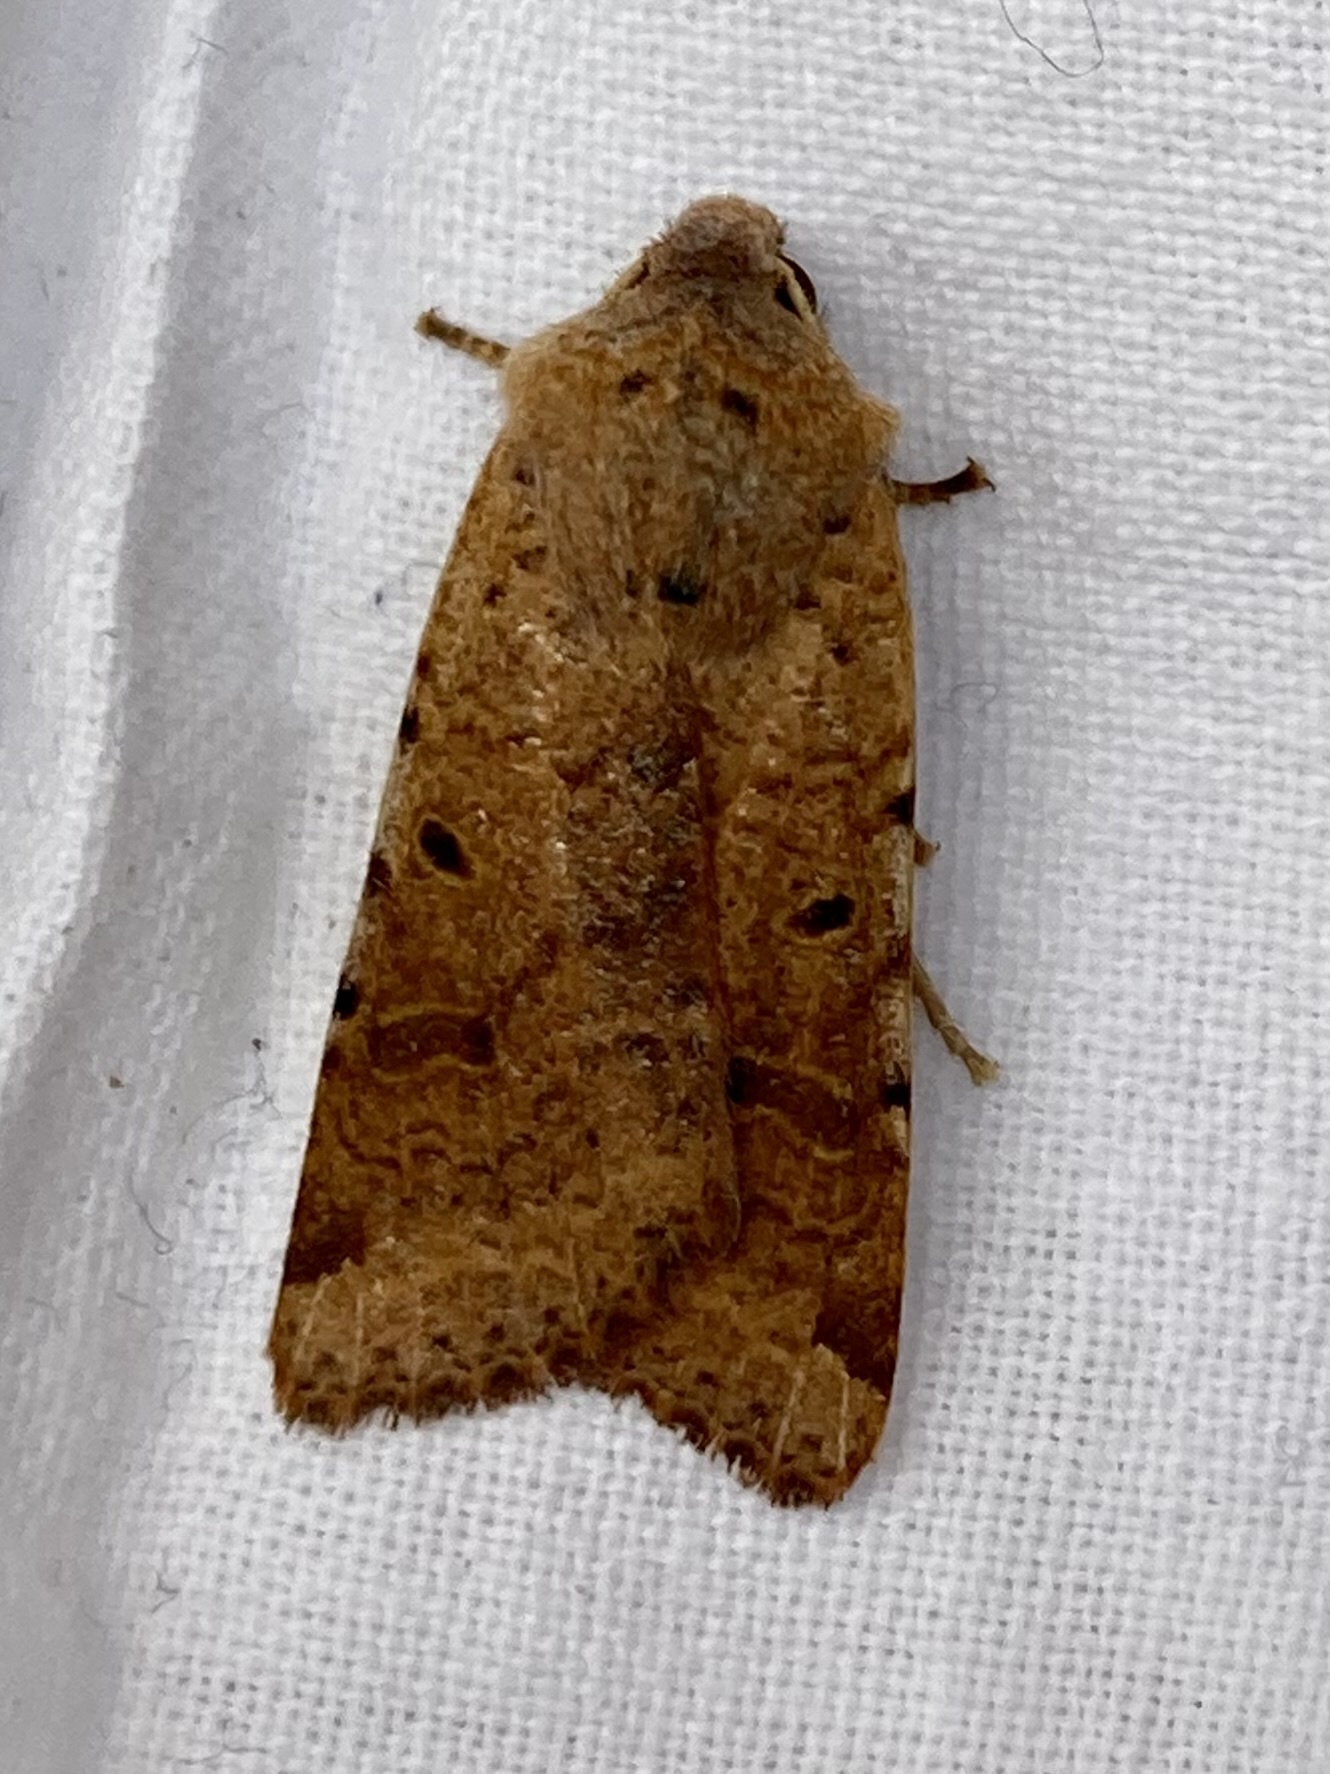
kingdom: Animalia
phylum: Arthropoda
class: Insecta
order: Lepidoptera
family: Noctuidae
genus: Agrochola
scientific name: Agrochola lychnidis
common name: Beaded chestnut
